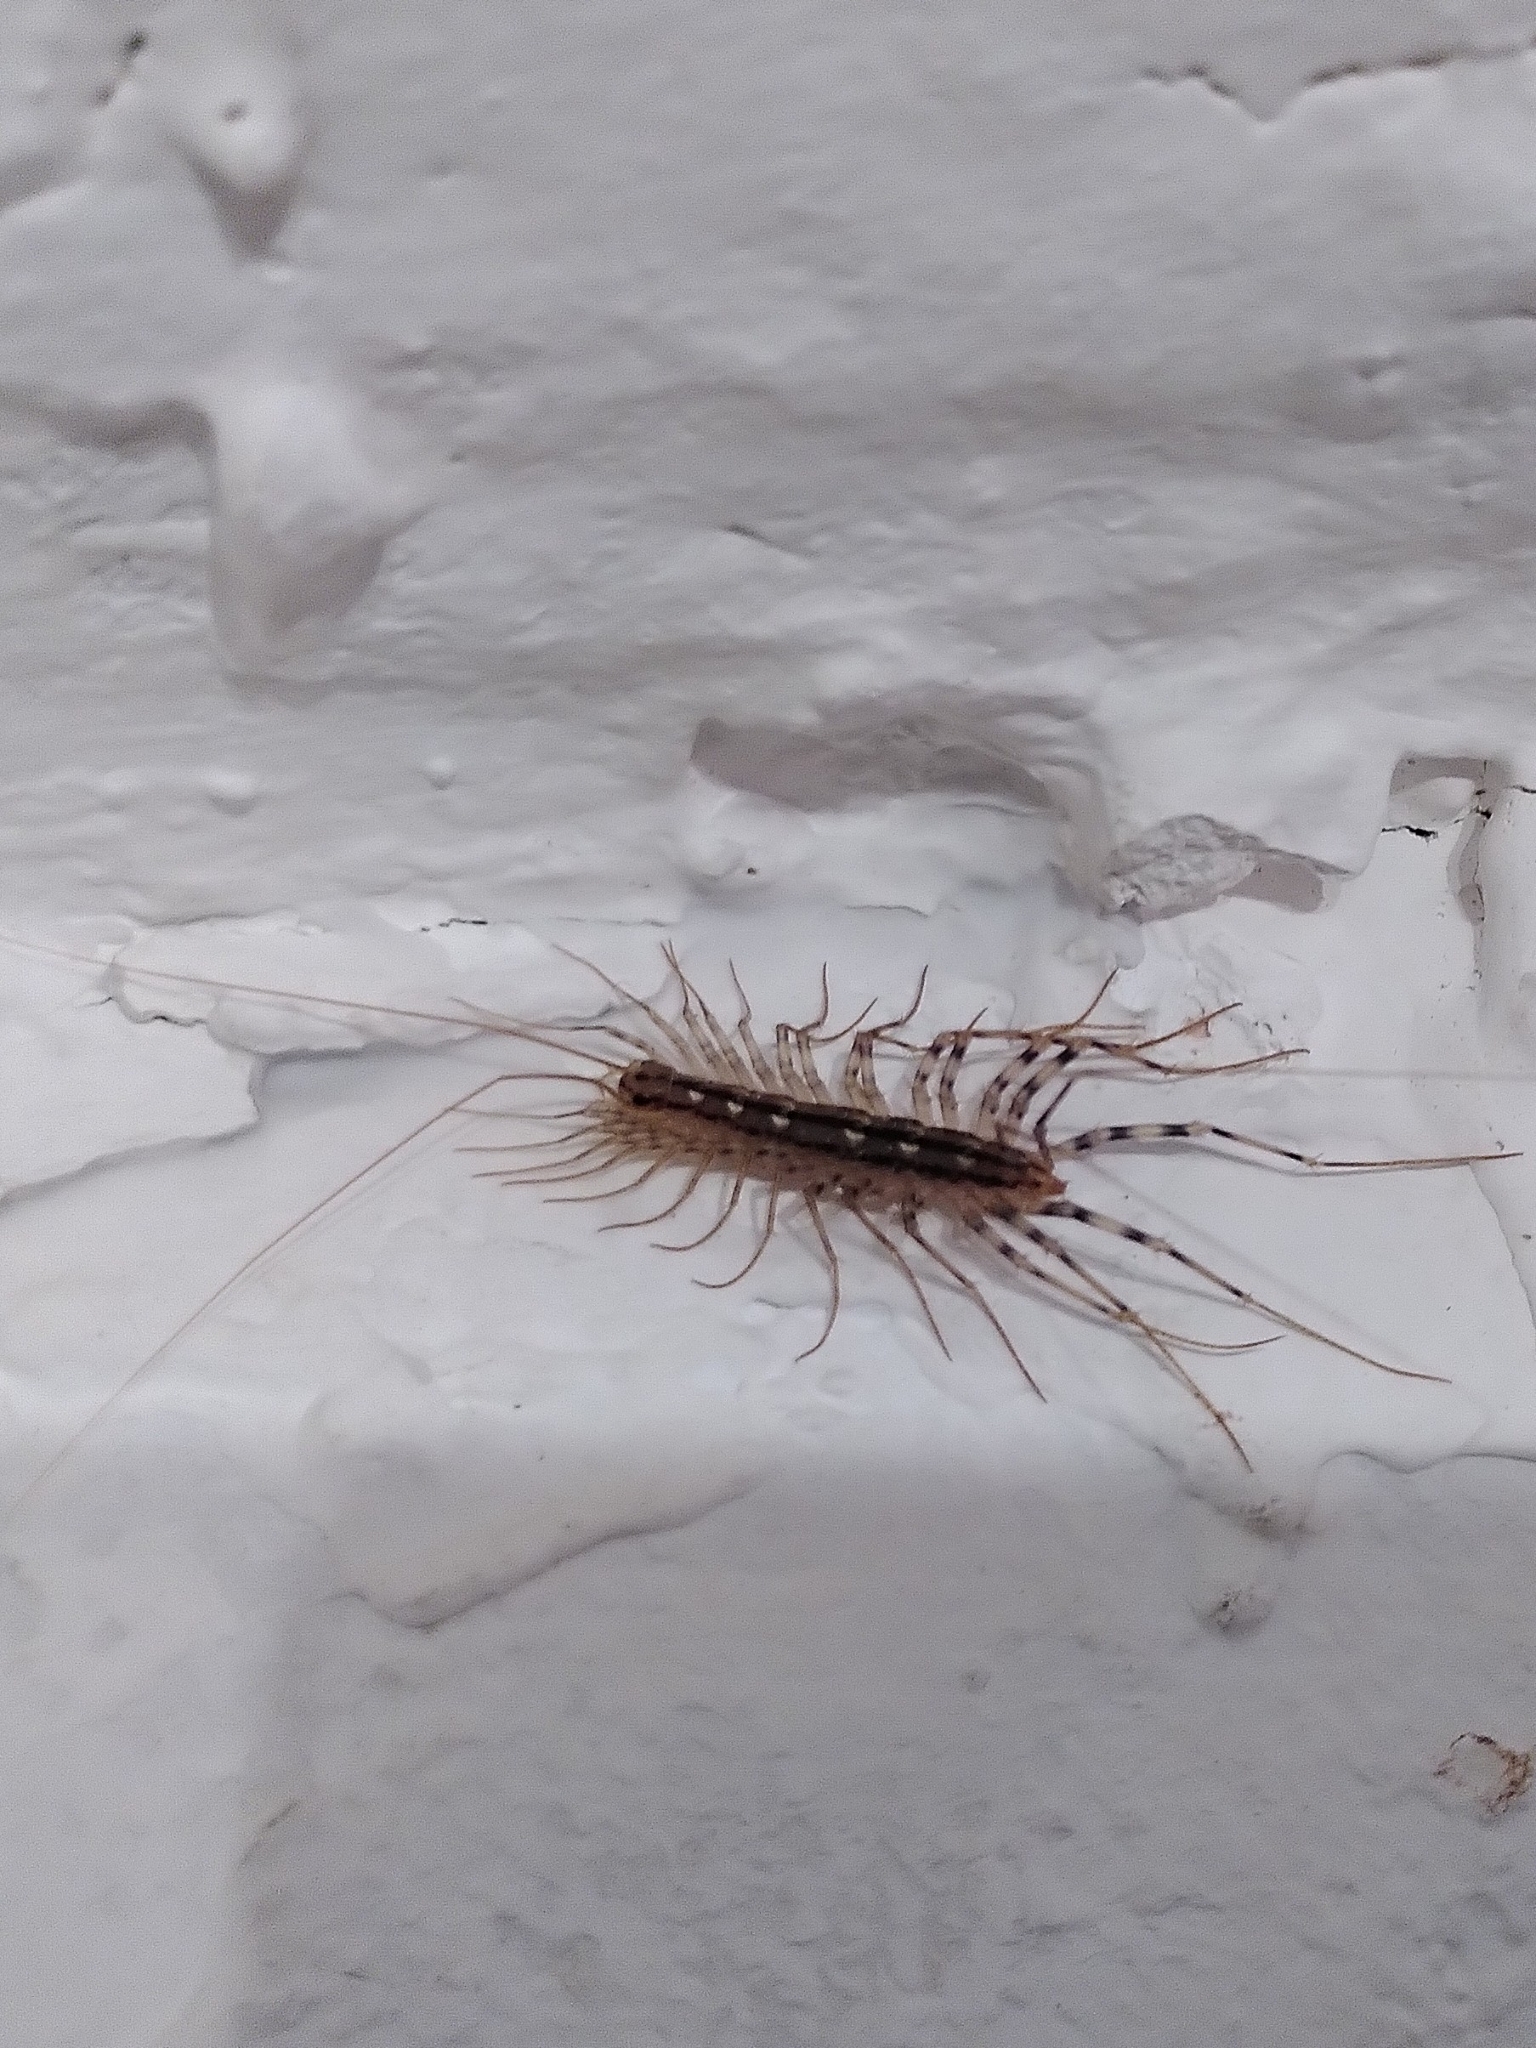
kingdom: Animalia
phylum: Arthropoda
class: Chilopoda
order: Scutigeromorpha
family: Scutigeridae
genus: Scutigera
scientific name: Scutigera coleoptrata
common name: House centipede
